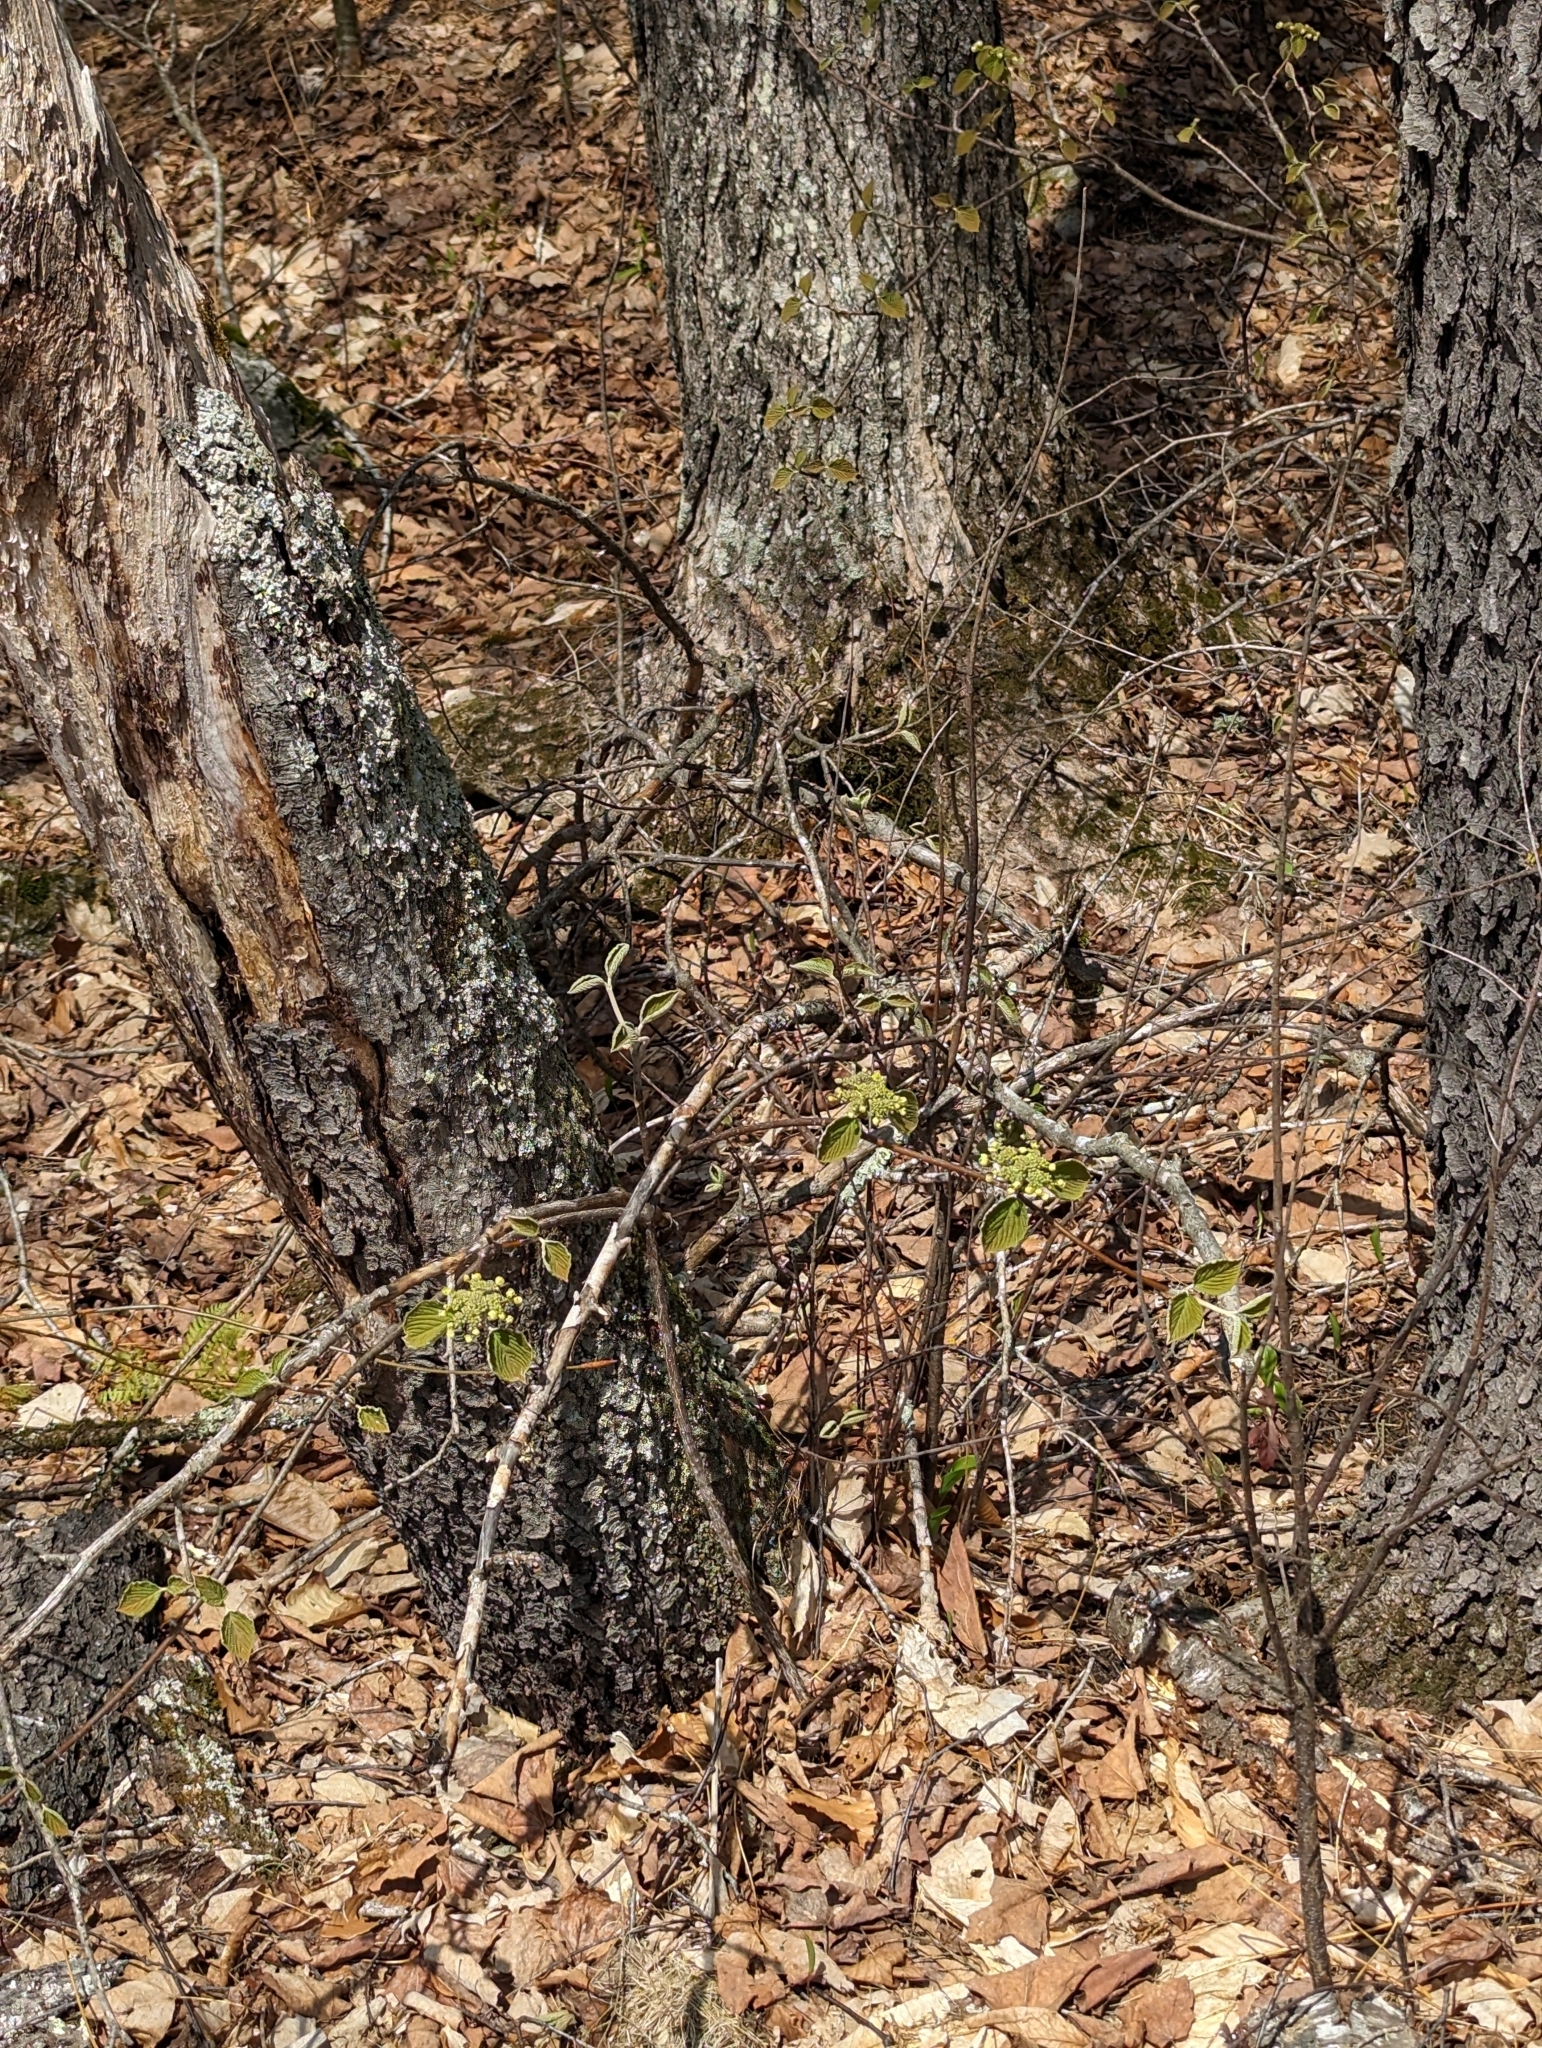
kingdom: Plantae
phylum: Tracheophyta
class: Magnoliopsida
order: Dipsacales
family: Viburnaceae
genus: Viburnum
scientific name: Viburnum lantanoides
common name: Hobblebush
